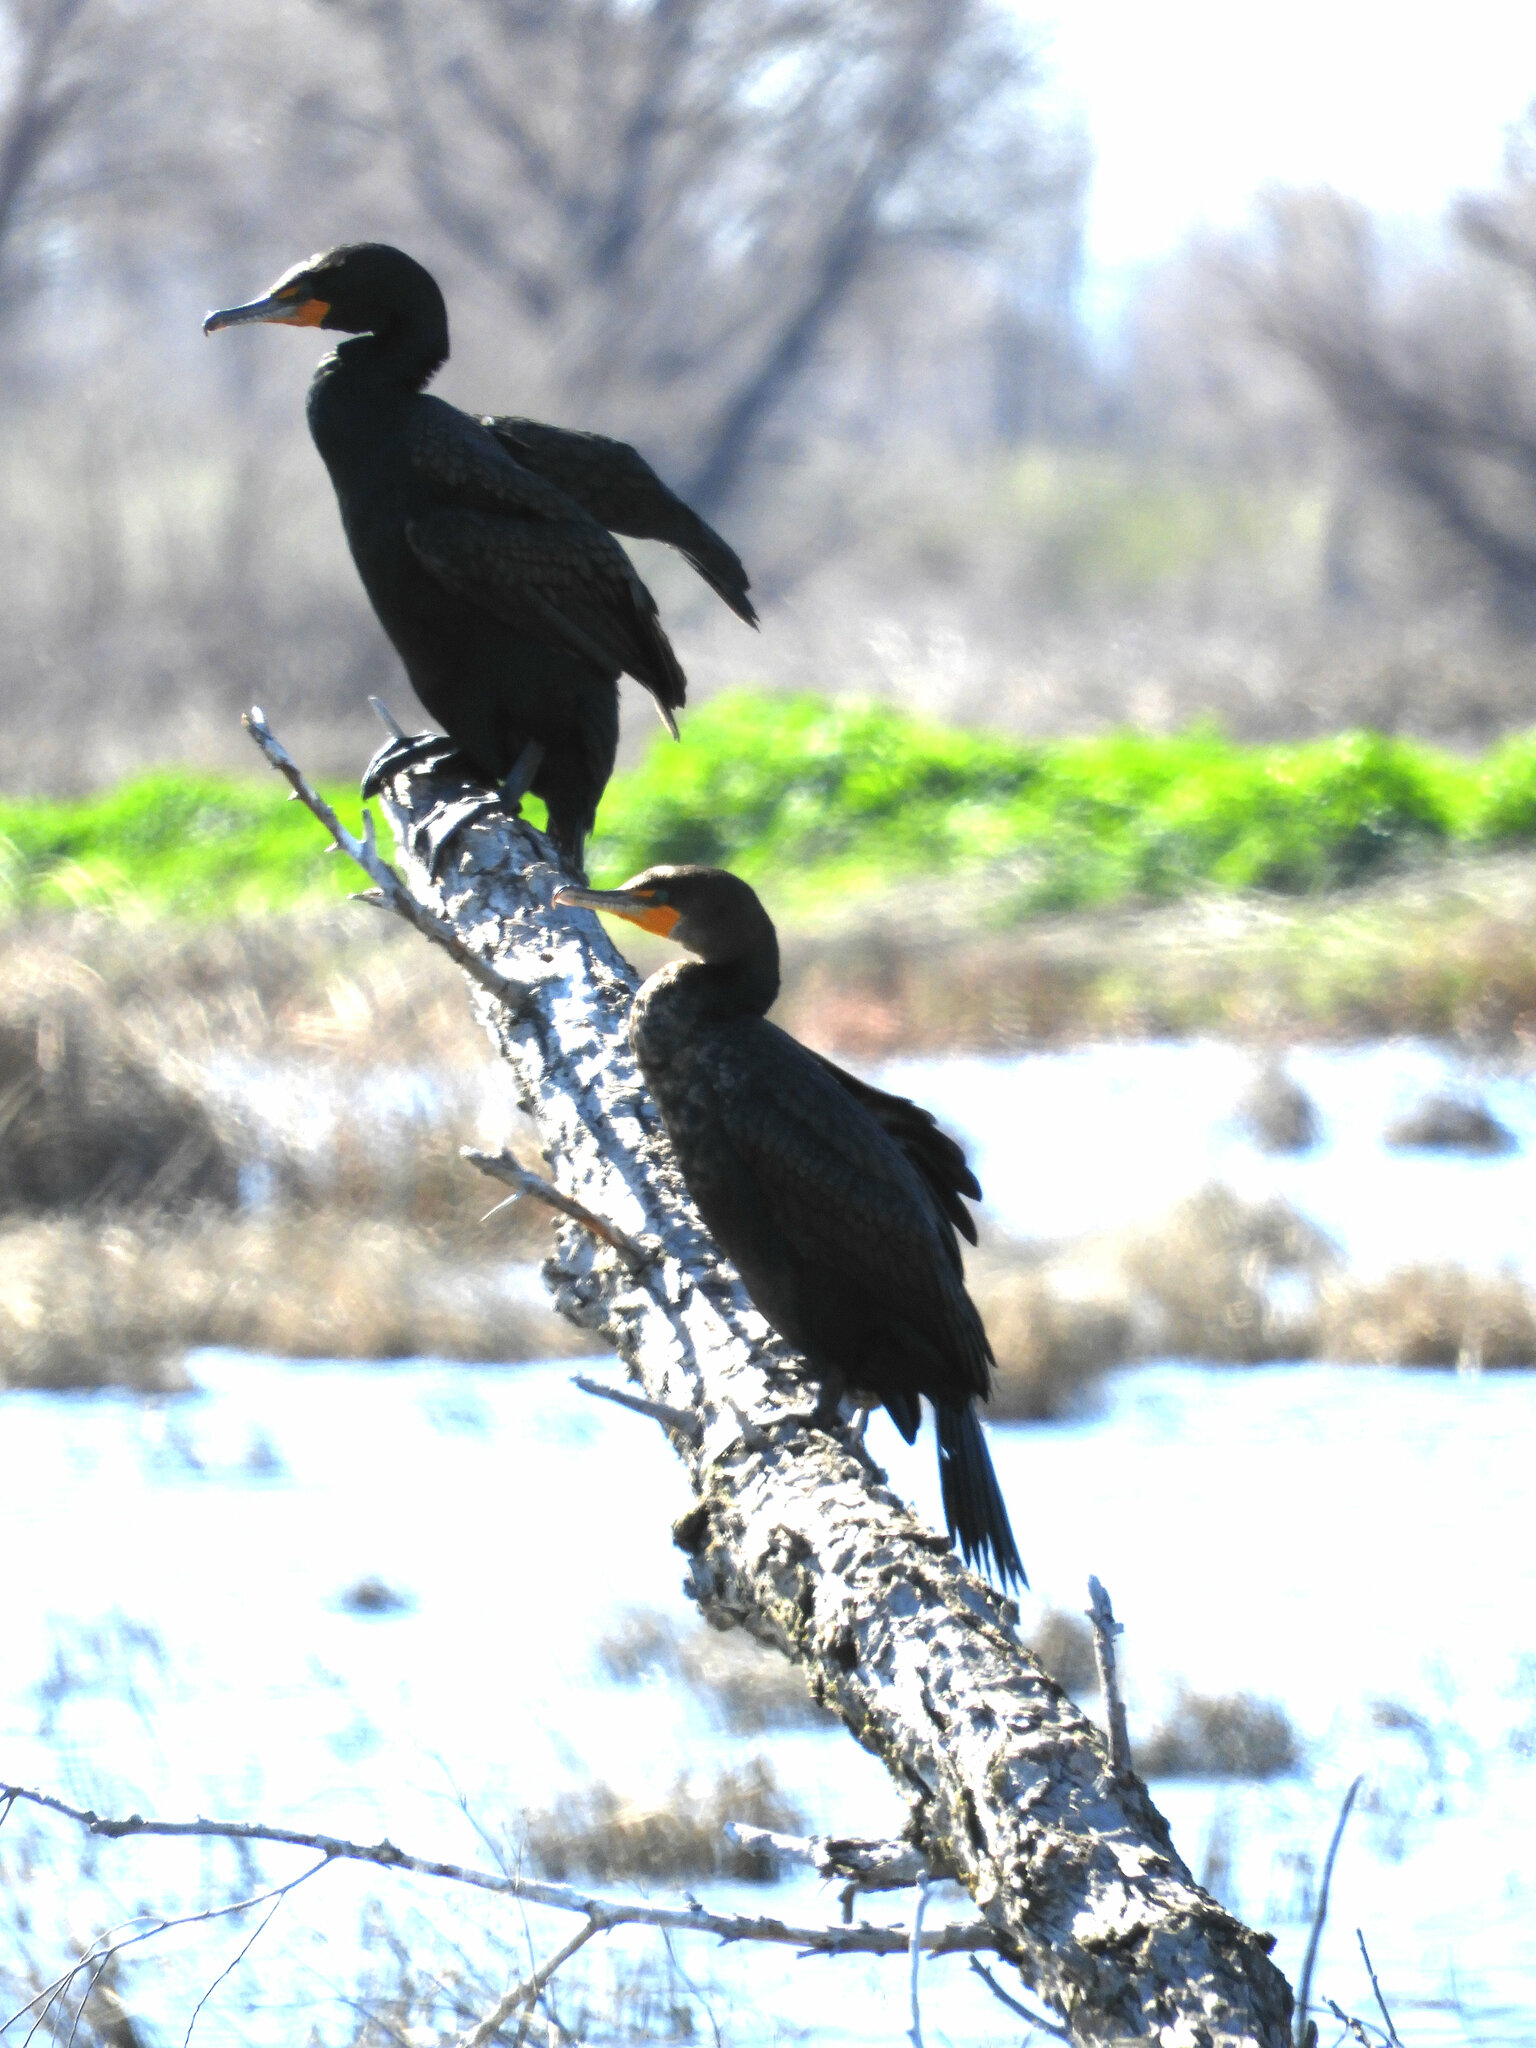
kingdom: Animalia
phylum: Chordata
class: Aves
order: Suliformes
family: Phalacrocoracidae
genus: Phalacrocorax
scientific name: Phalacrocorax auritus
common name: Double-crested cormorant
